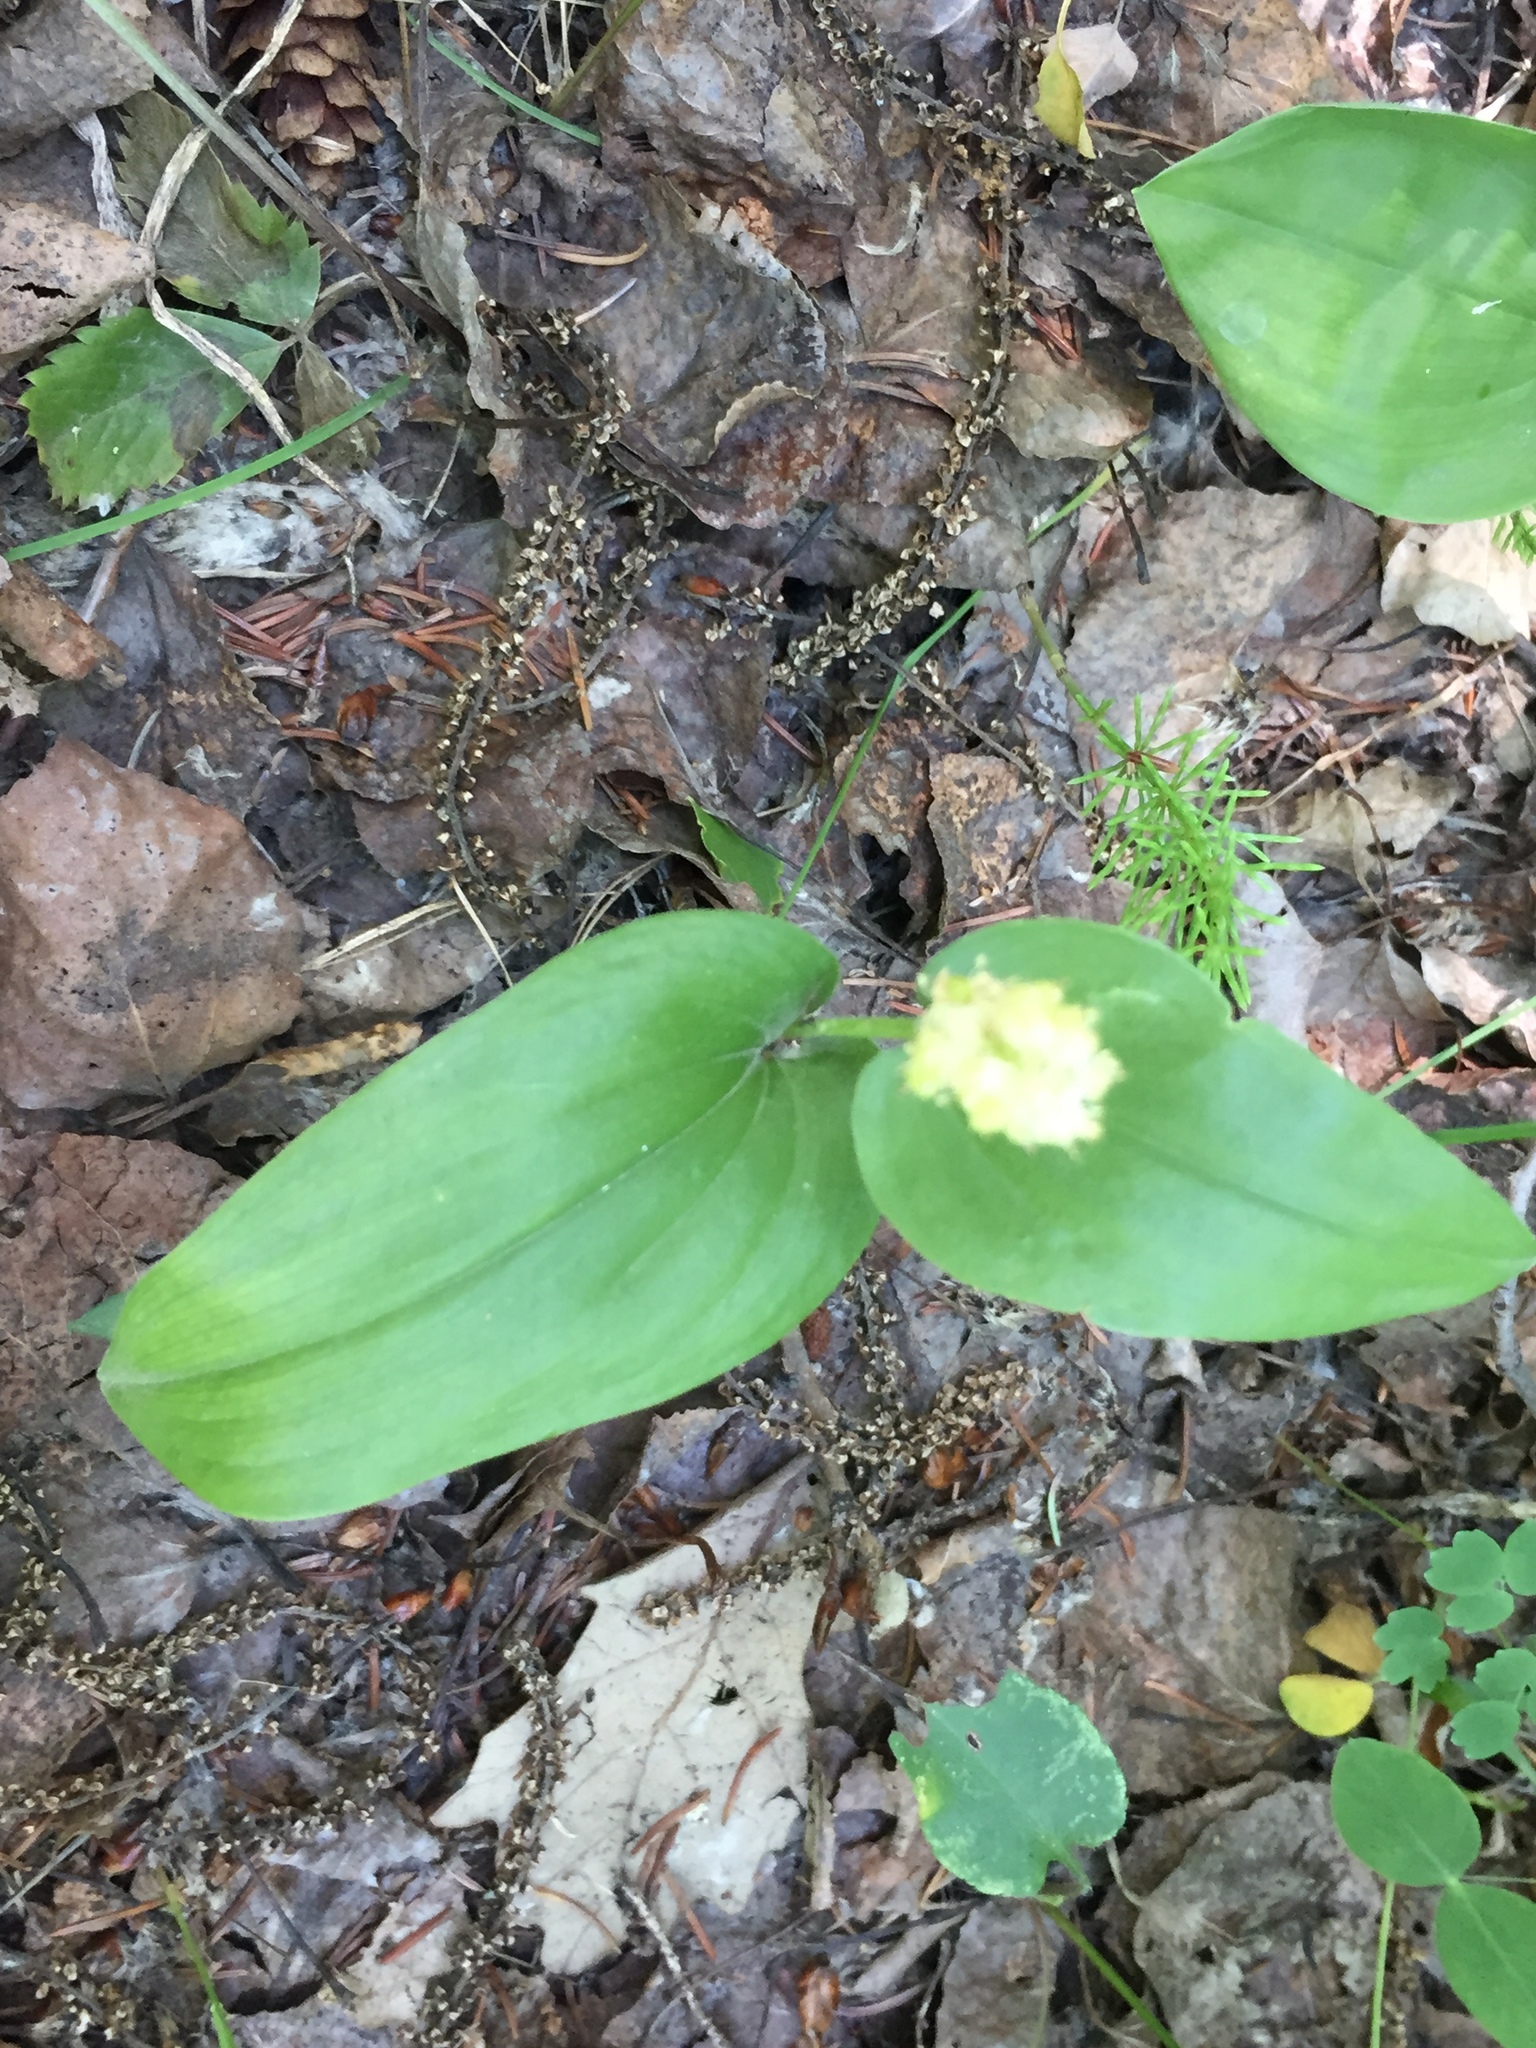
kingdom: Plantae
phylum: Tracheophyta
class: Liliopsida
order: Asparagales
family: Asparagaceae
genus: Maianthemum
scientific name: Maianthemum canadense
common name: False lily-of-the-valley
